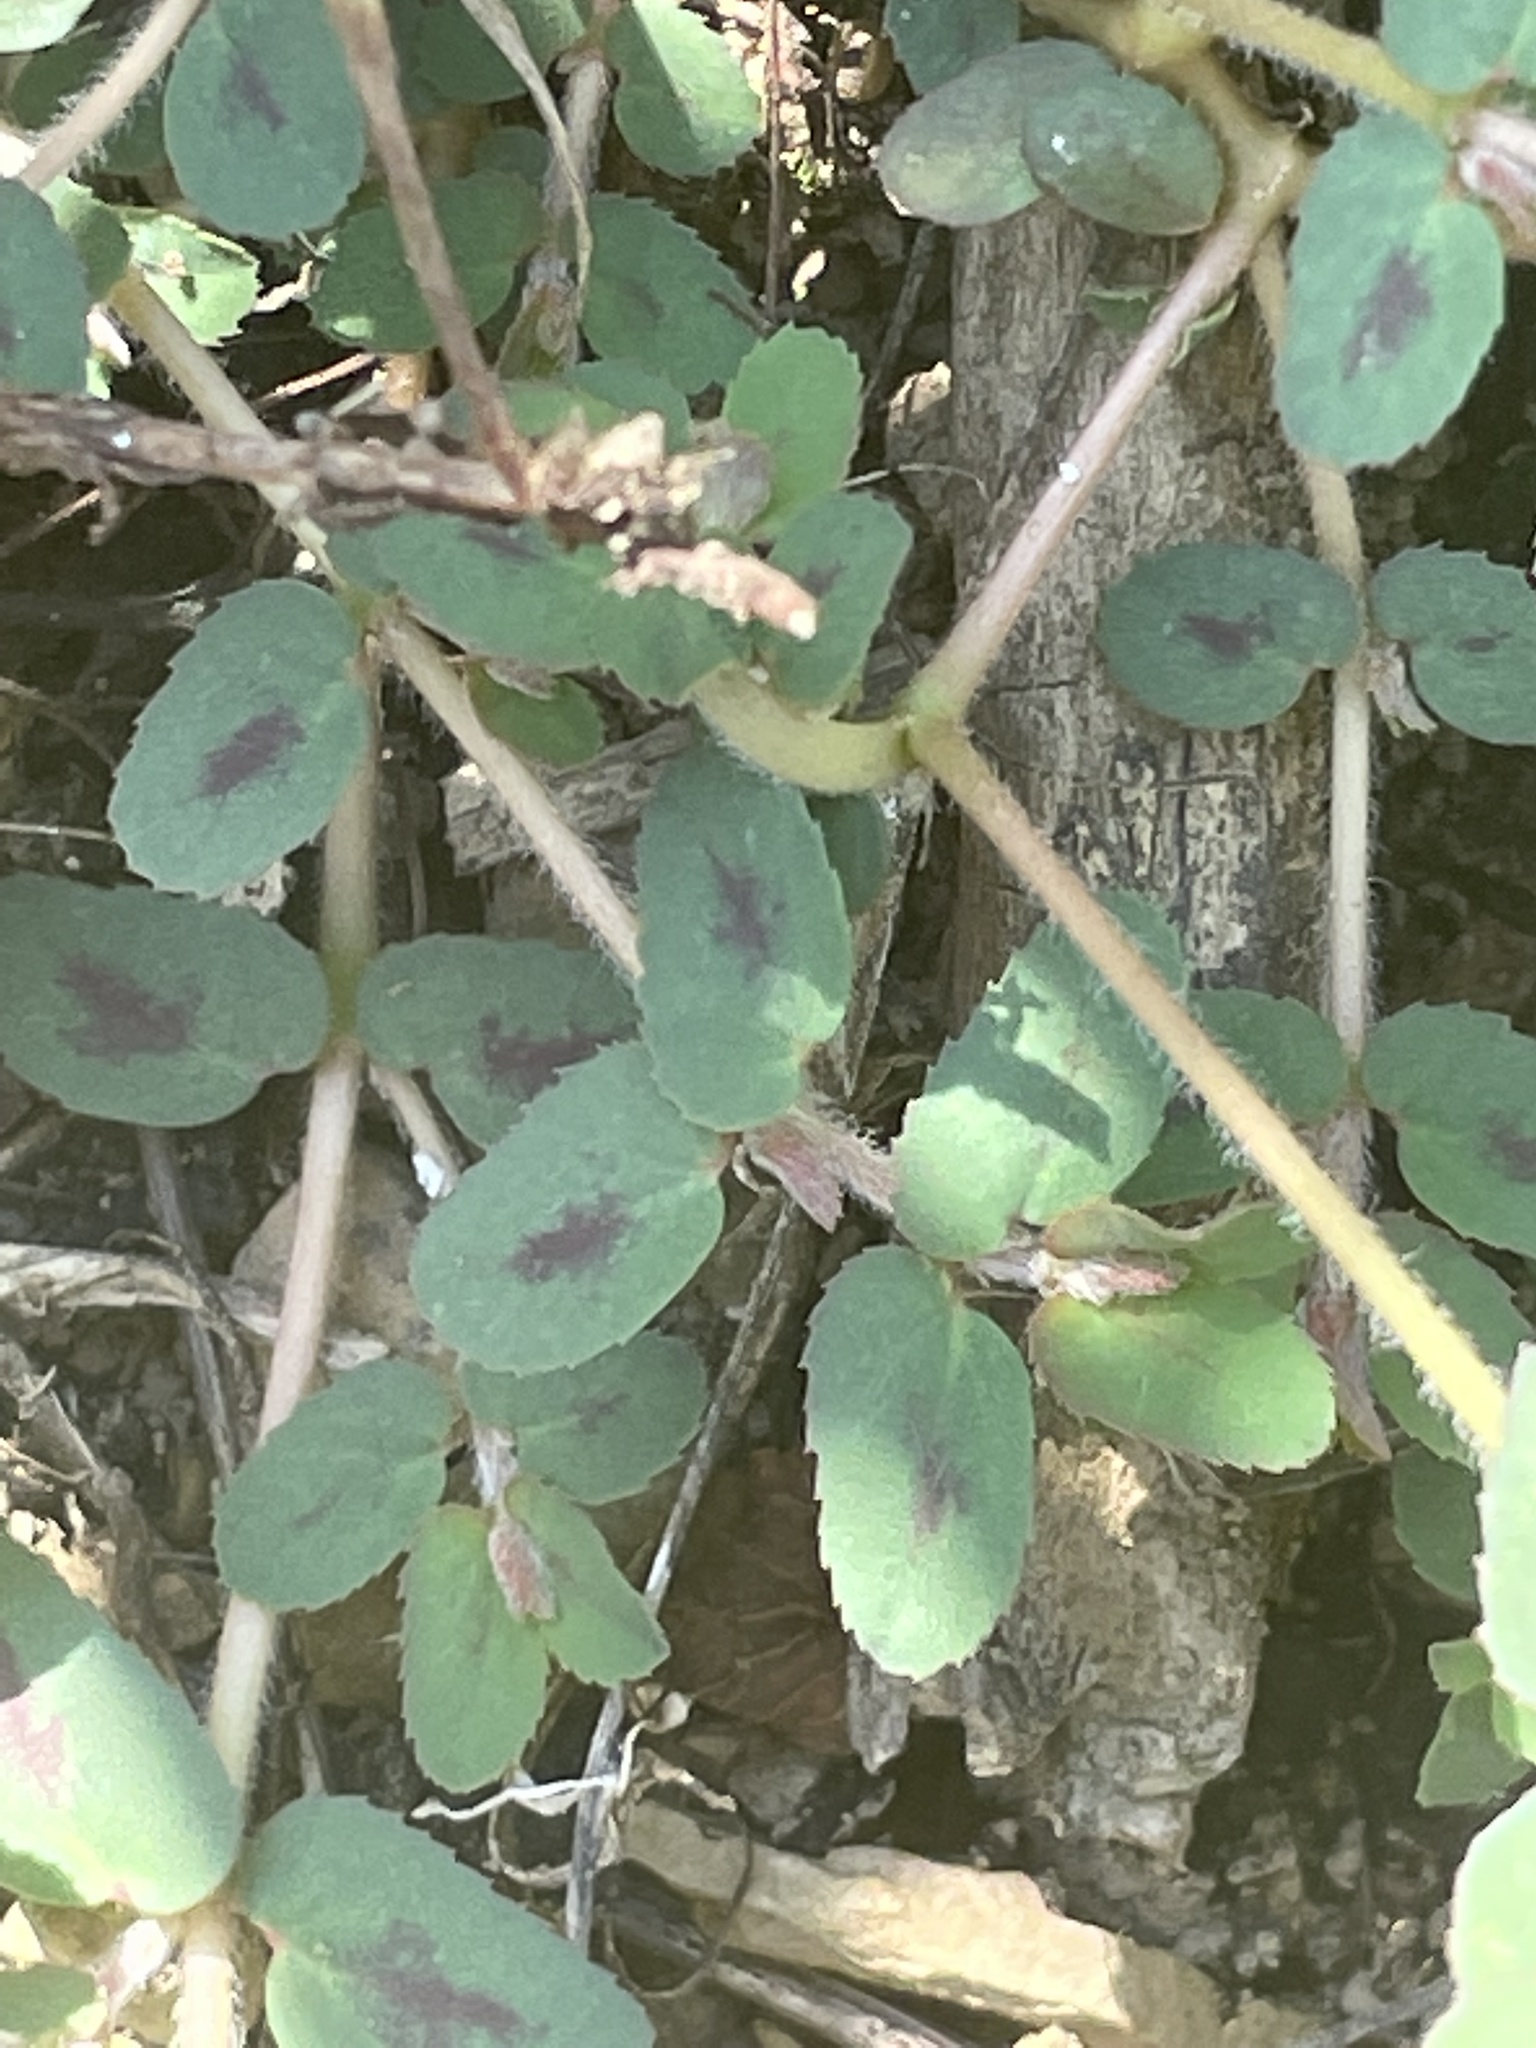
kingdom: Plantae
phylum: Tracheophyta
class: Magnoliopsida
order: Malpighiales
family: Euphorbiaceae
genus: Euphorbia
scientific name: Euphorbia maculata
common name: Spotted spurge
